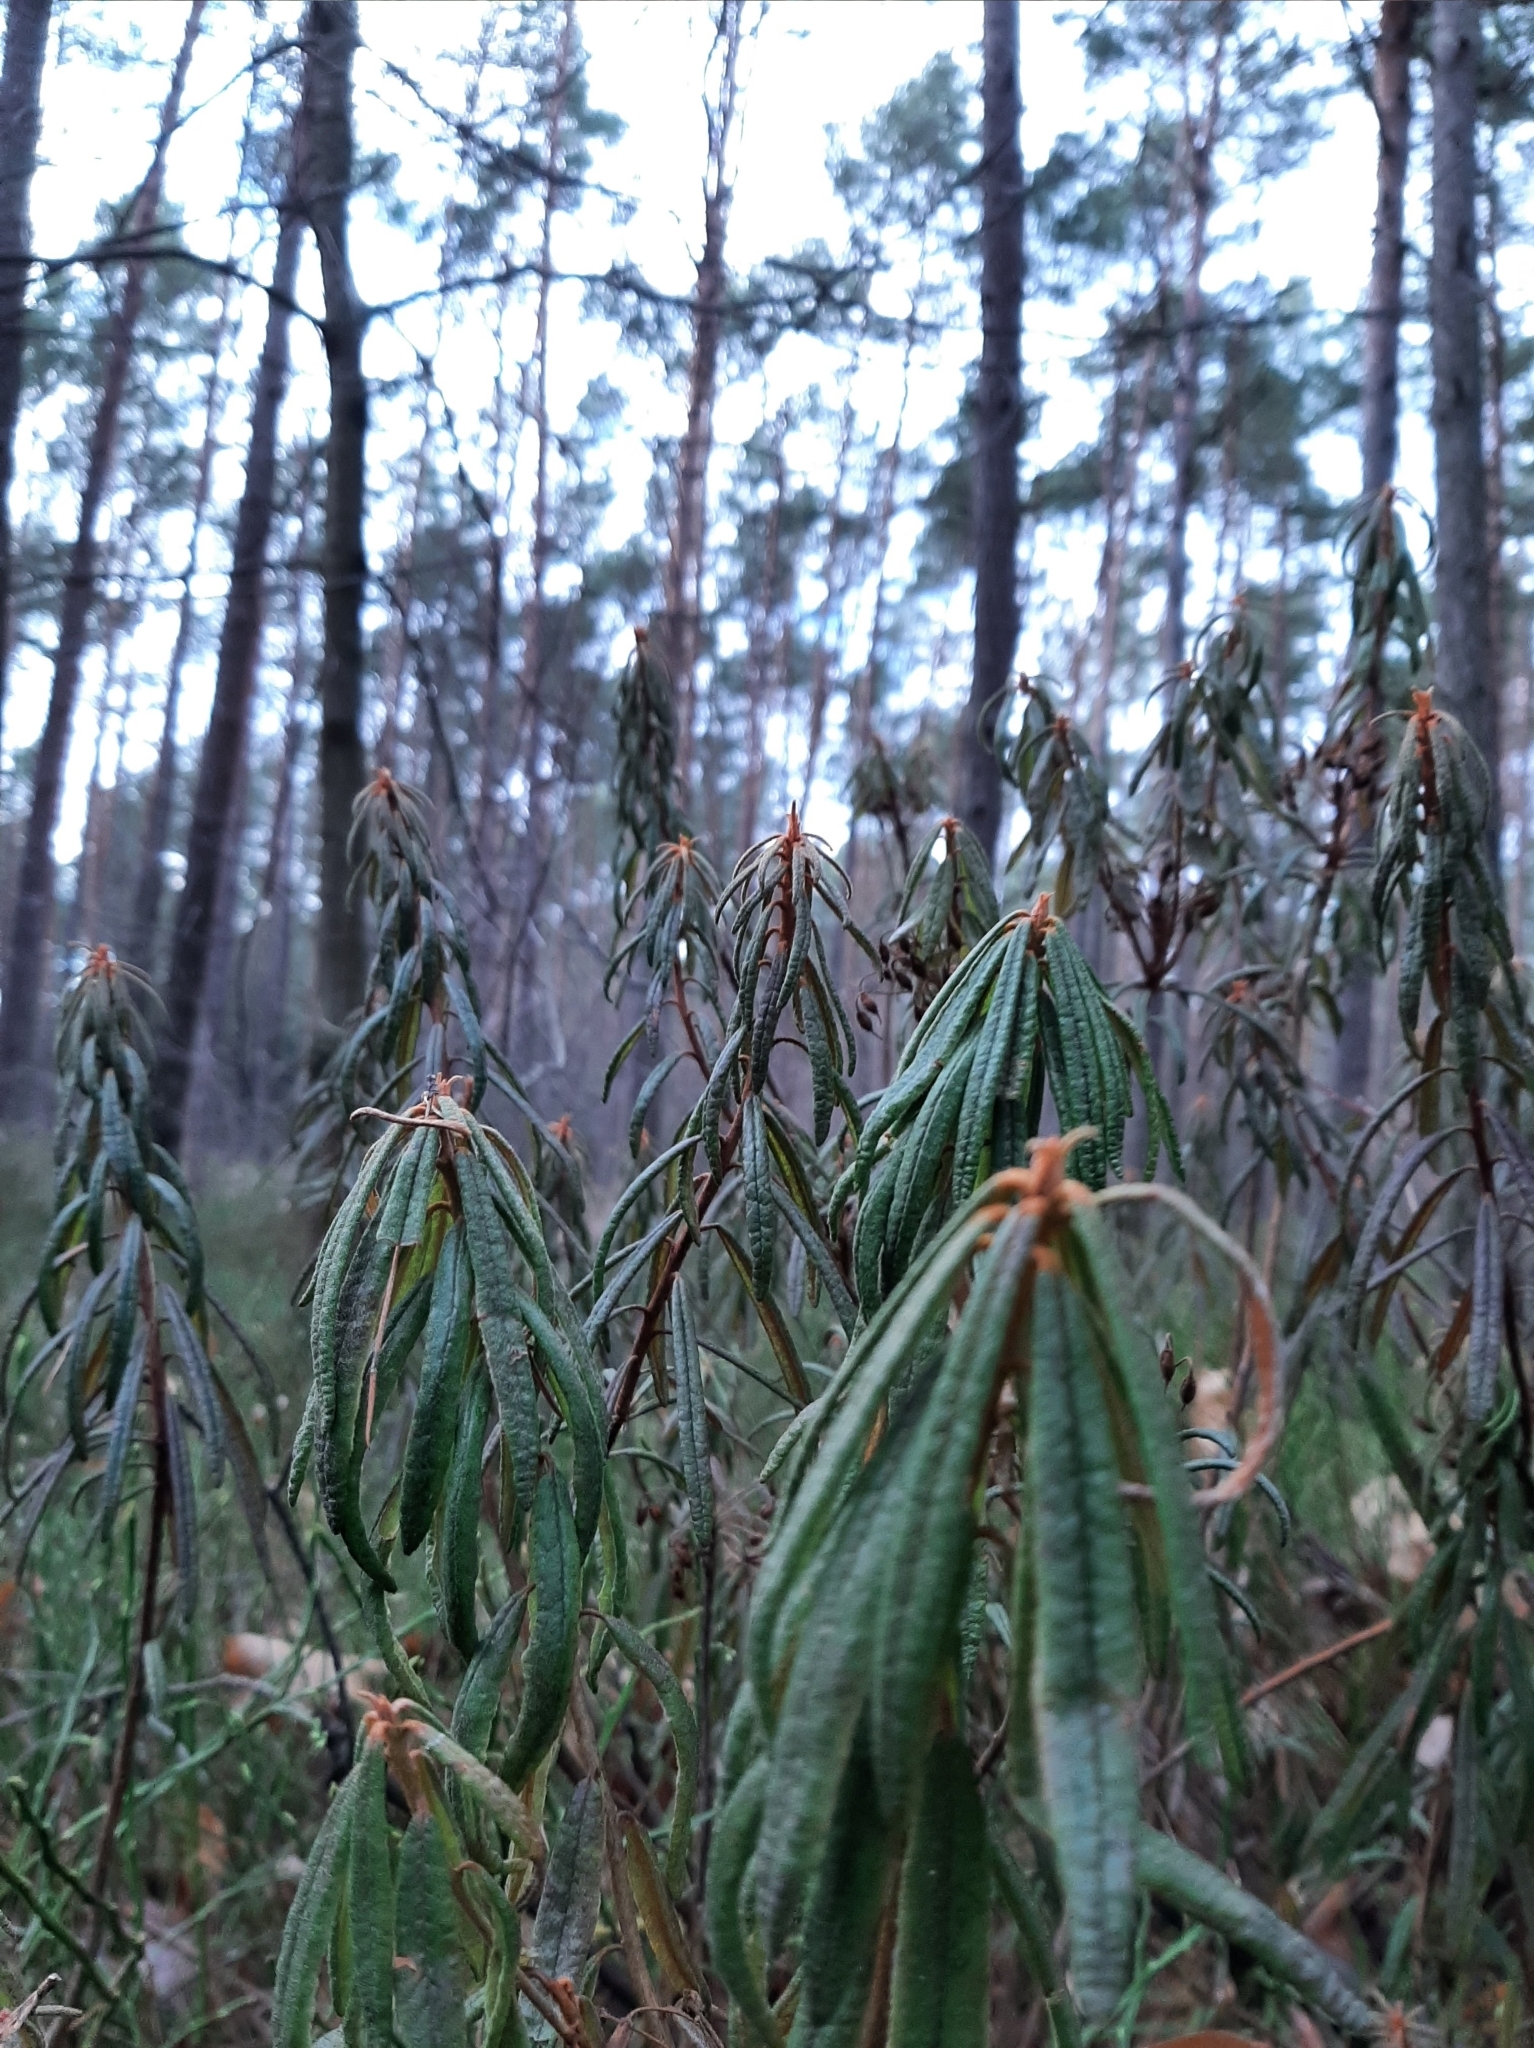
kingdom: Plantae
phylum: Tracheophyta
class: Magnoliopsida
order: Ericales
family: Ericaceae
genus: Rhododendron
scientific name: Rhododendron tomentosum
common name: Marsh labrador tea
